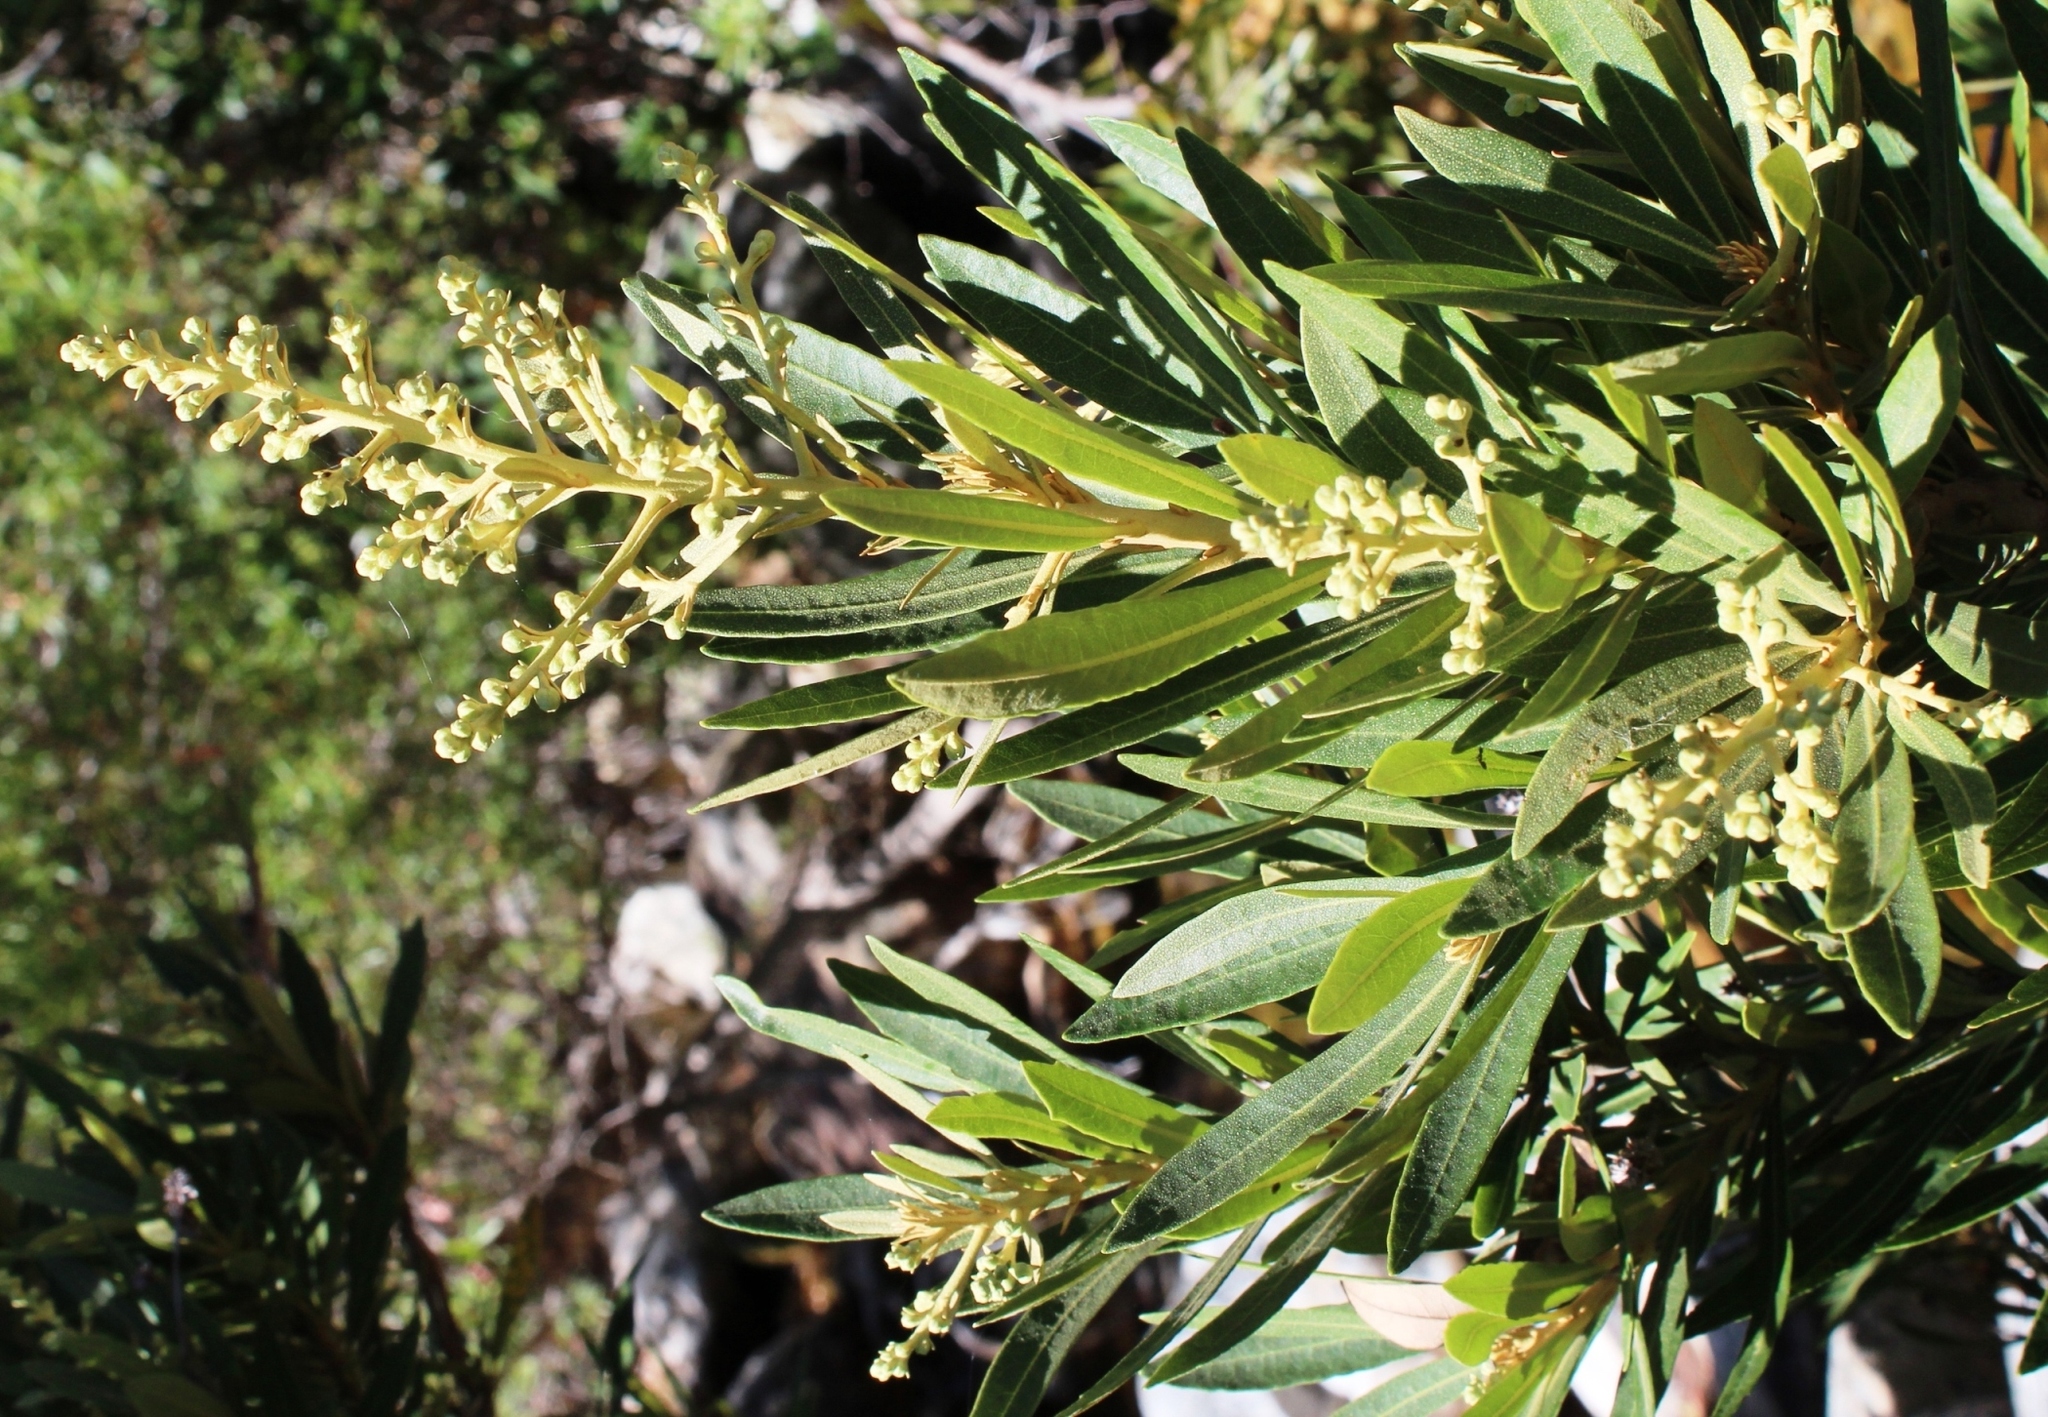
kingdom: Plantae
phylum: Tracheophyta
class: Magnoliopsida
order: Asterales
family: Asteraceae
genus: Brachylaena
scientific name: Brachylaena neriifolia
